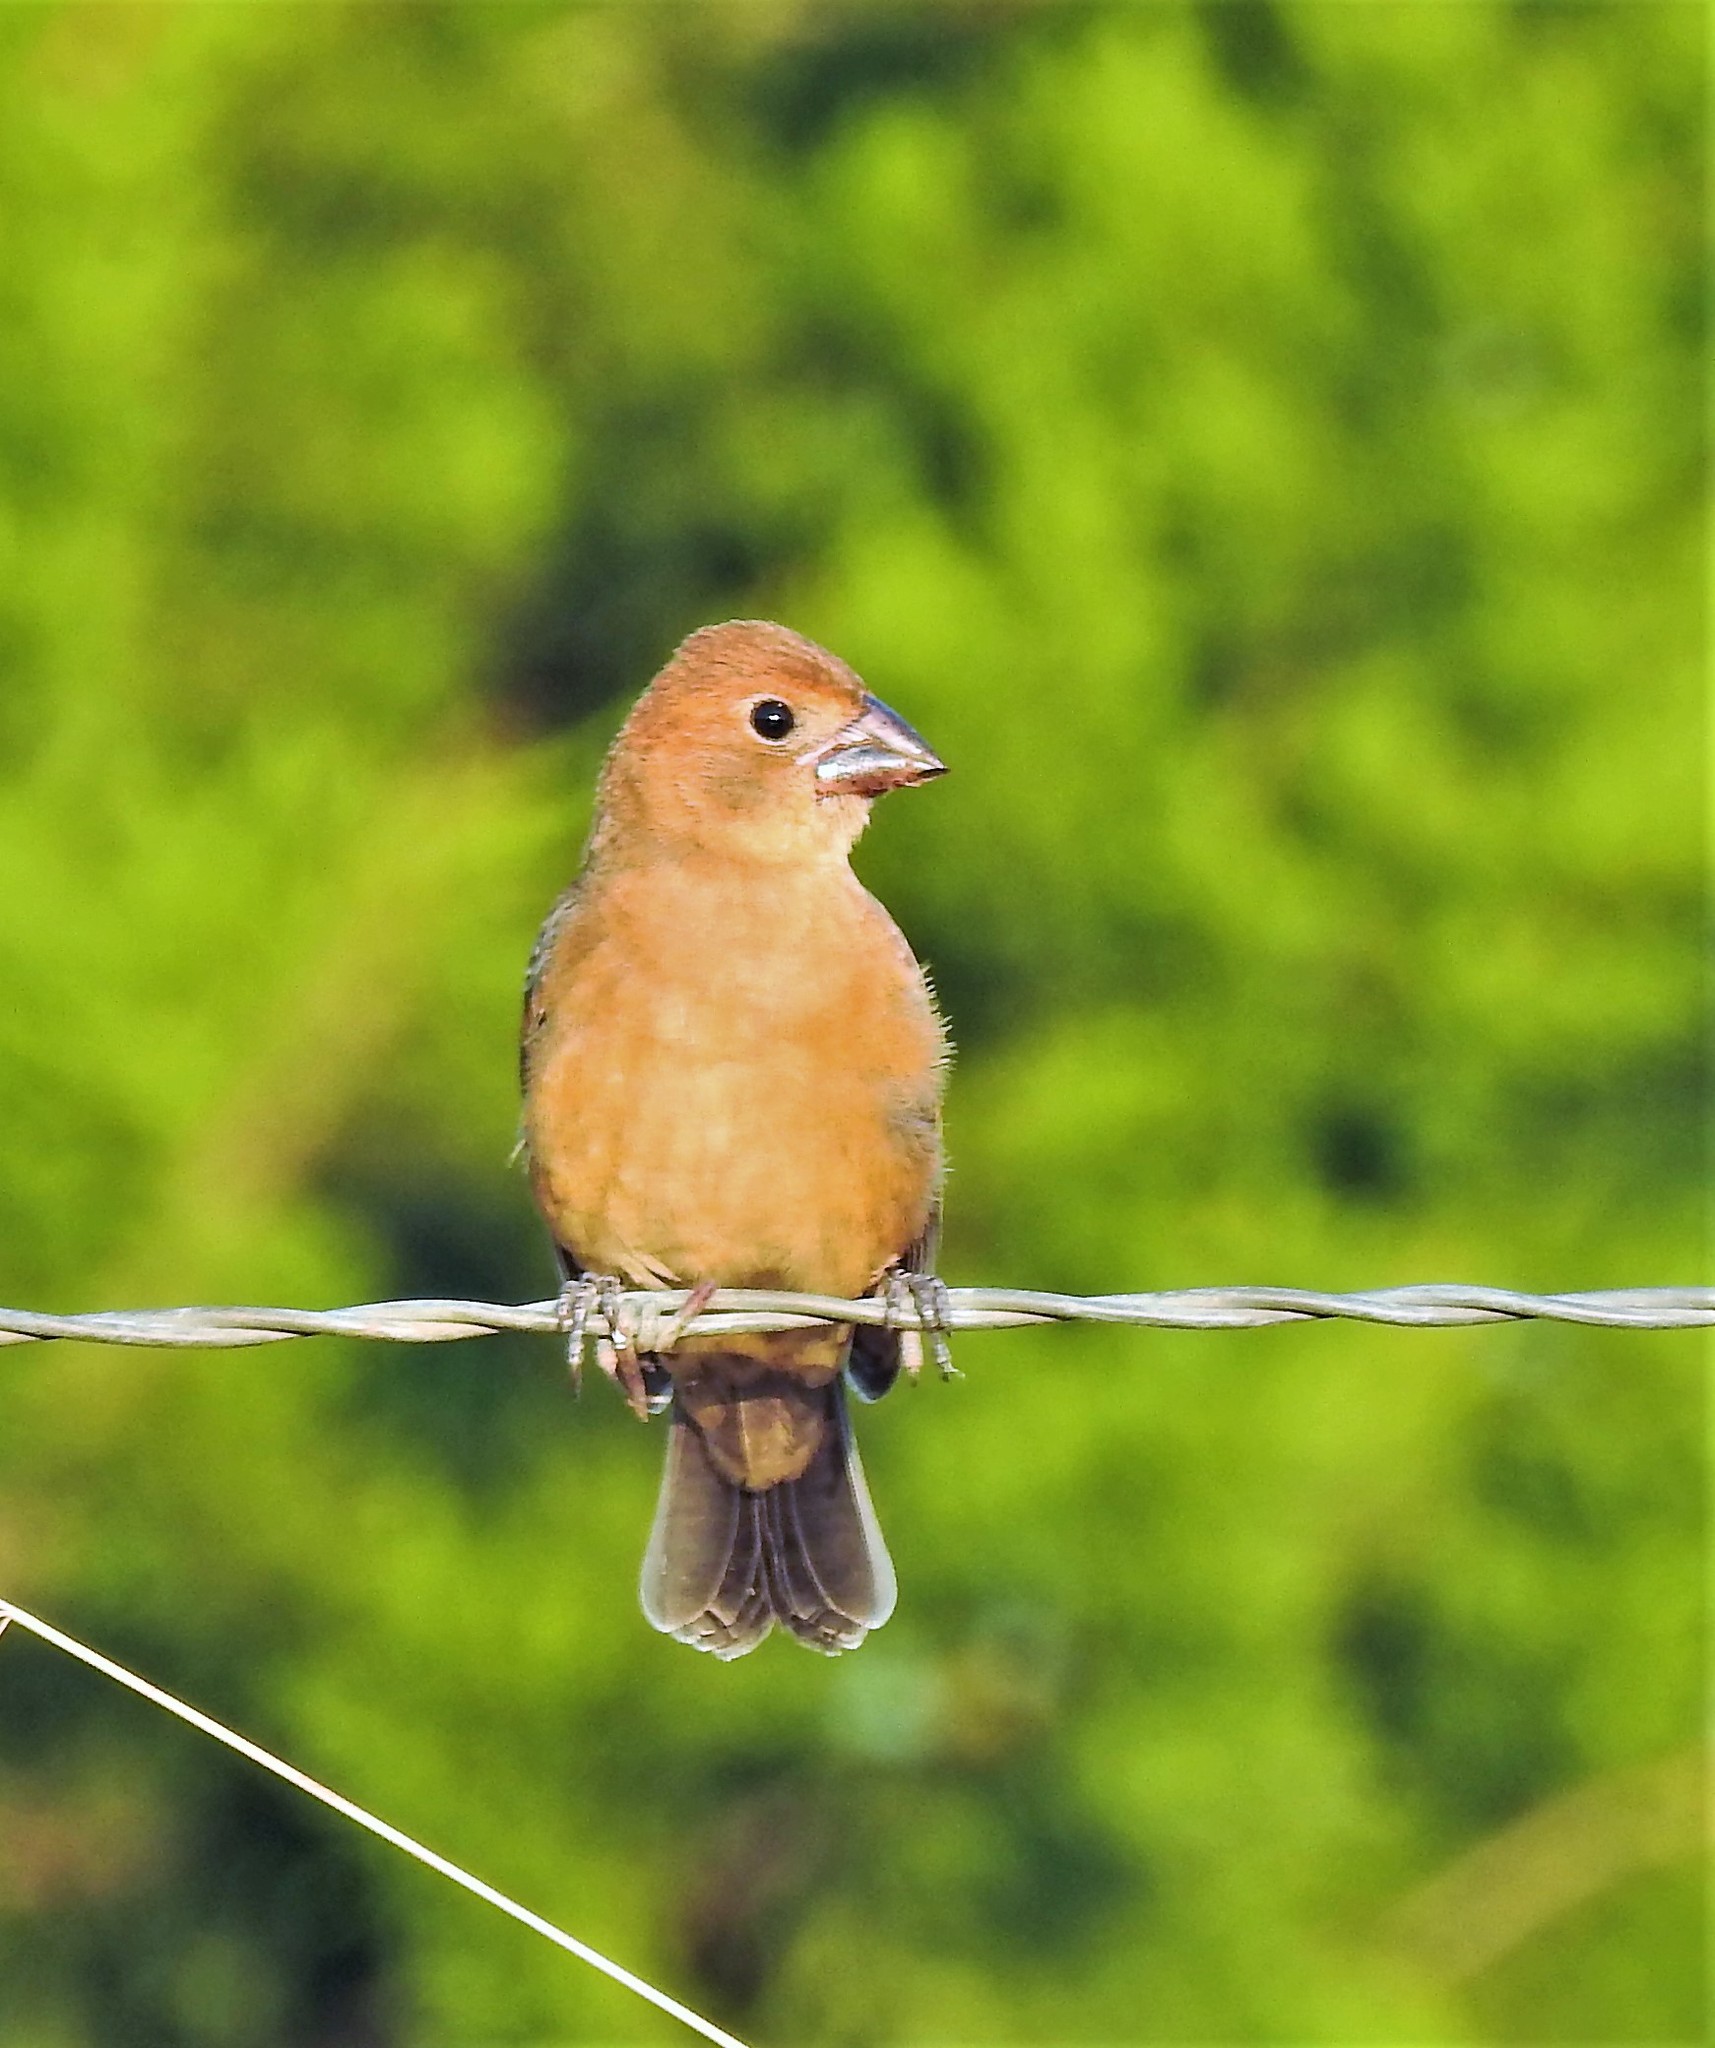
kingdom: Animalia
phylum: Chordata
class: Aves
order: Passeriformes
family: Cardinalidae
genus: Passerina
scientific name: Passerina caerulea
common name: Blue grosbeak
